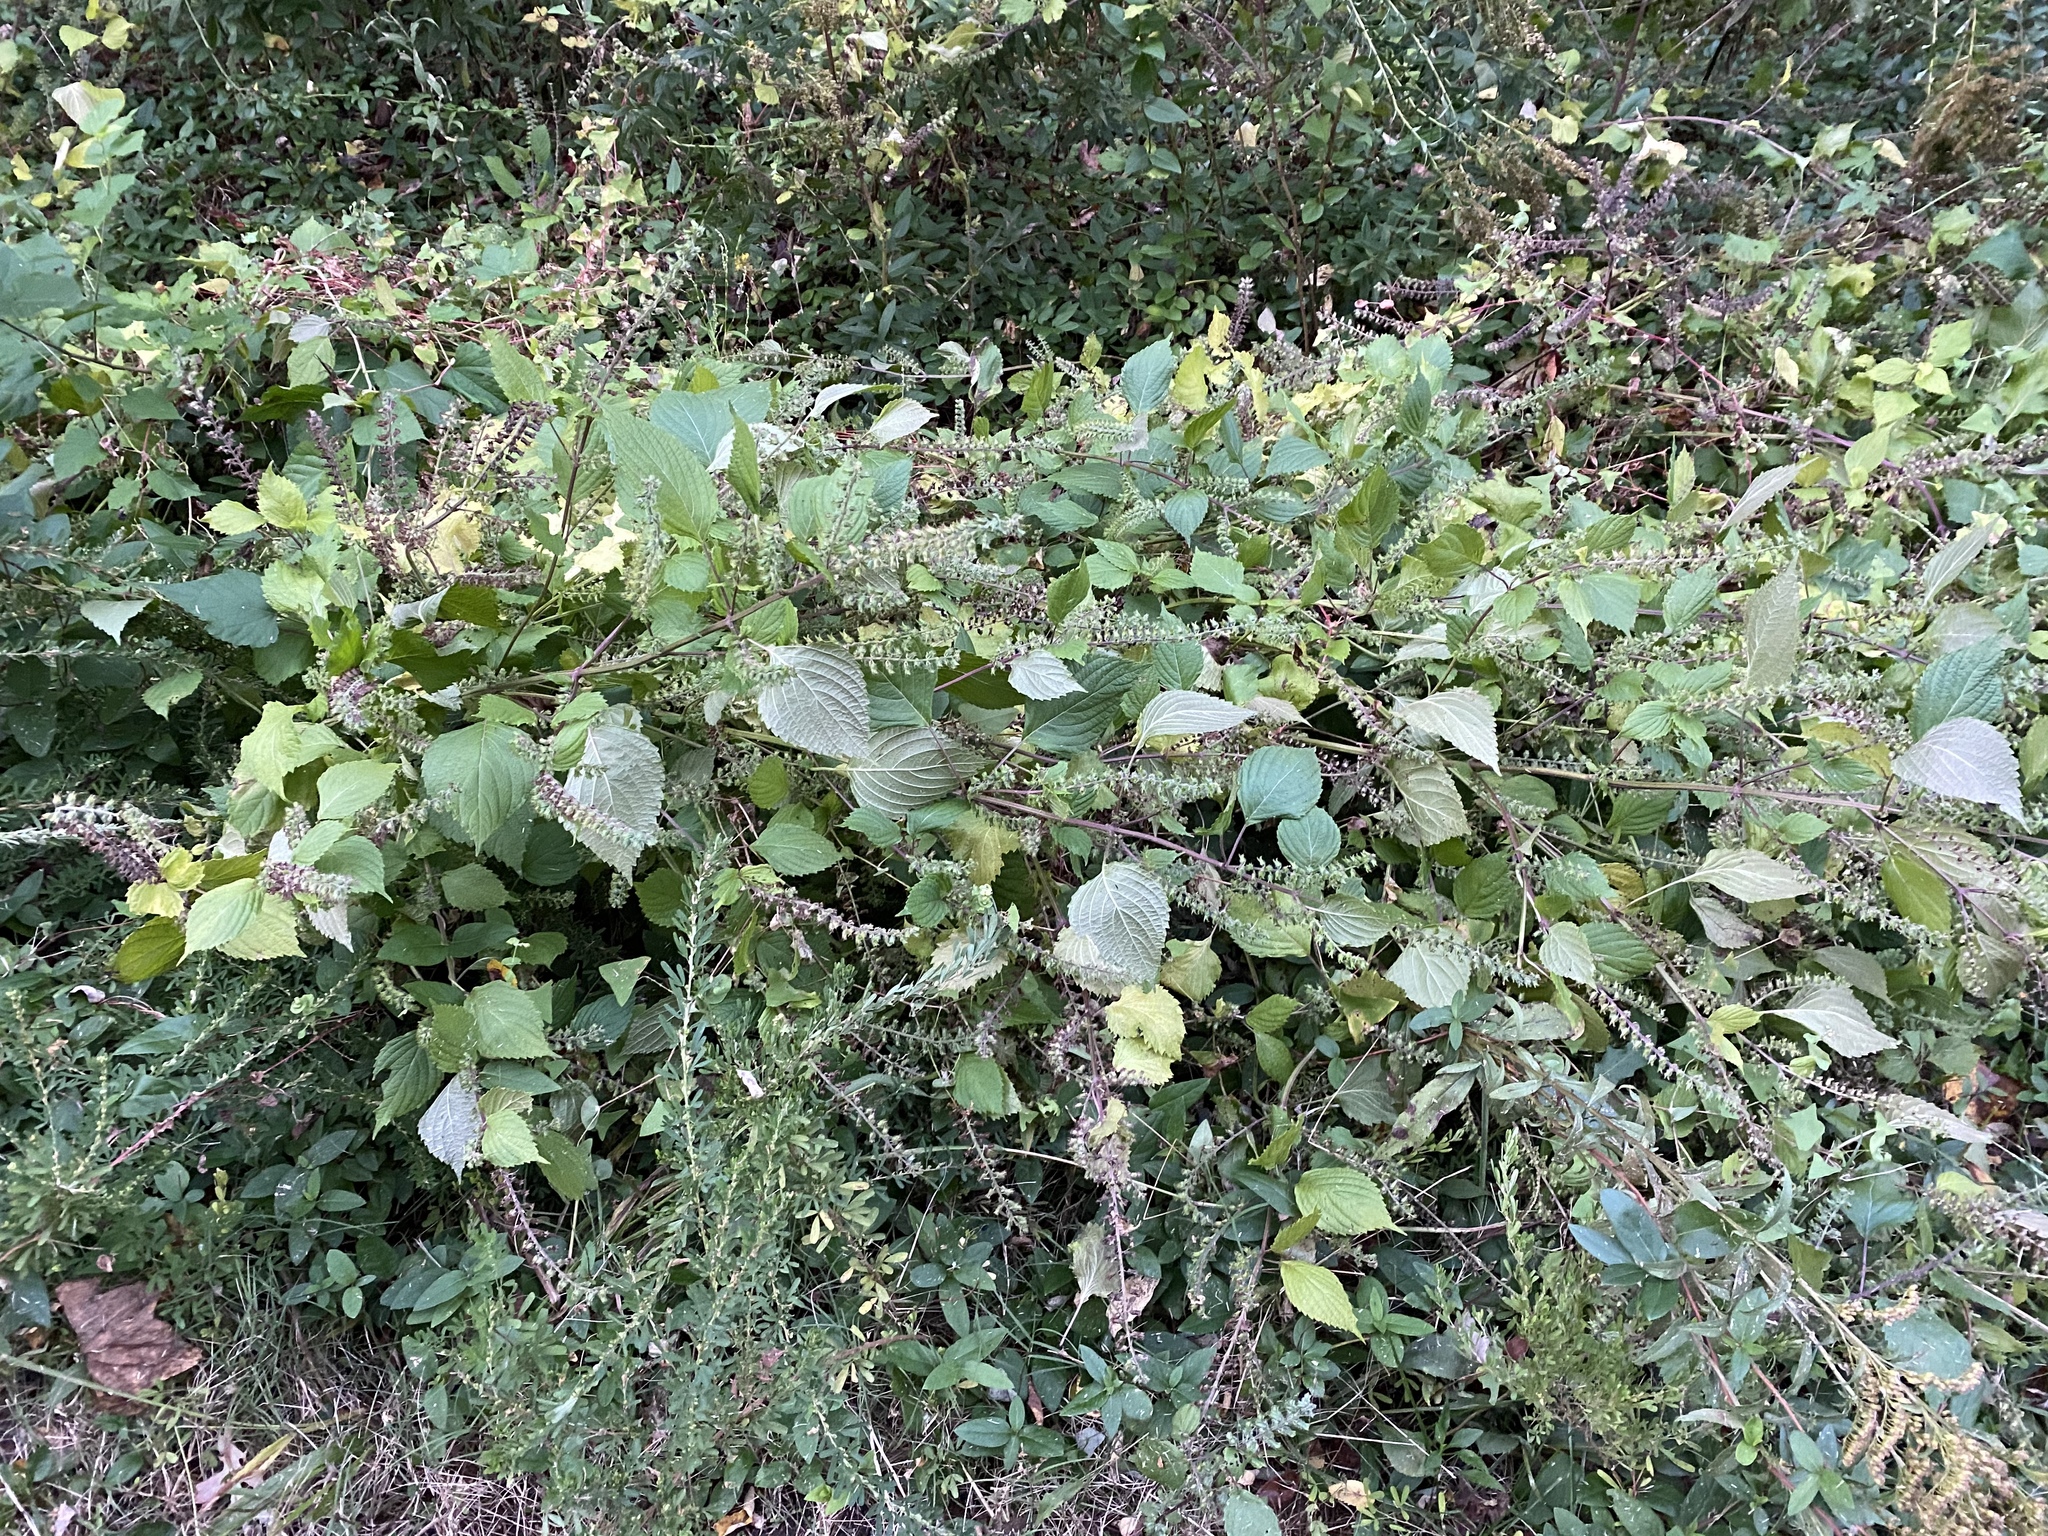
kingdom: Plantae
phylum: Tracheophyta
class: Magnoliopsida
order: Lamiales
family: Lamiaceae
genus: Perilla
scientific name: Perilla frutescens
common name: Perilla
